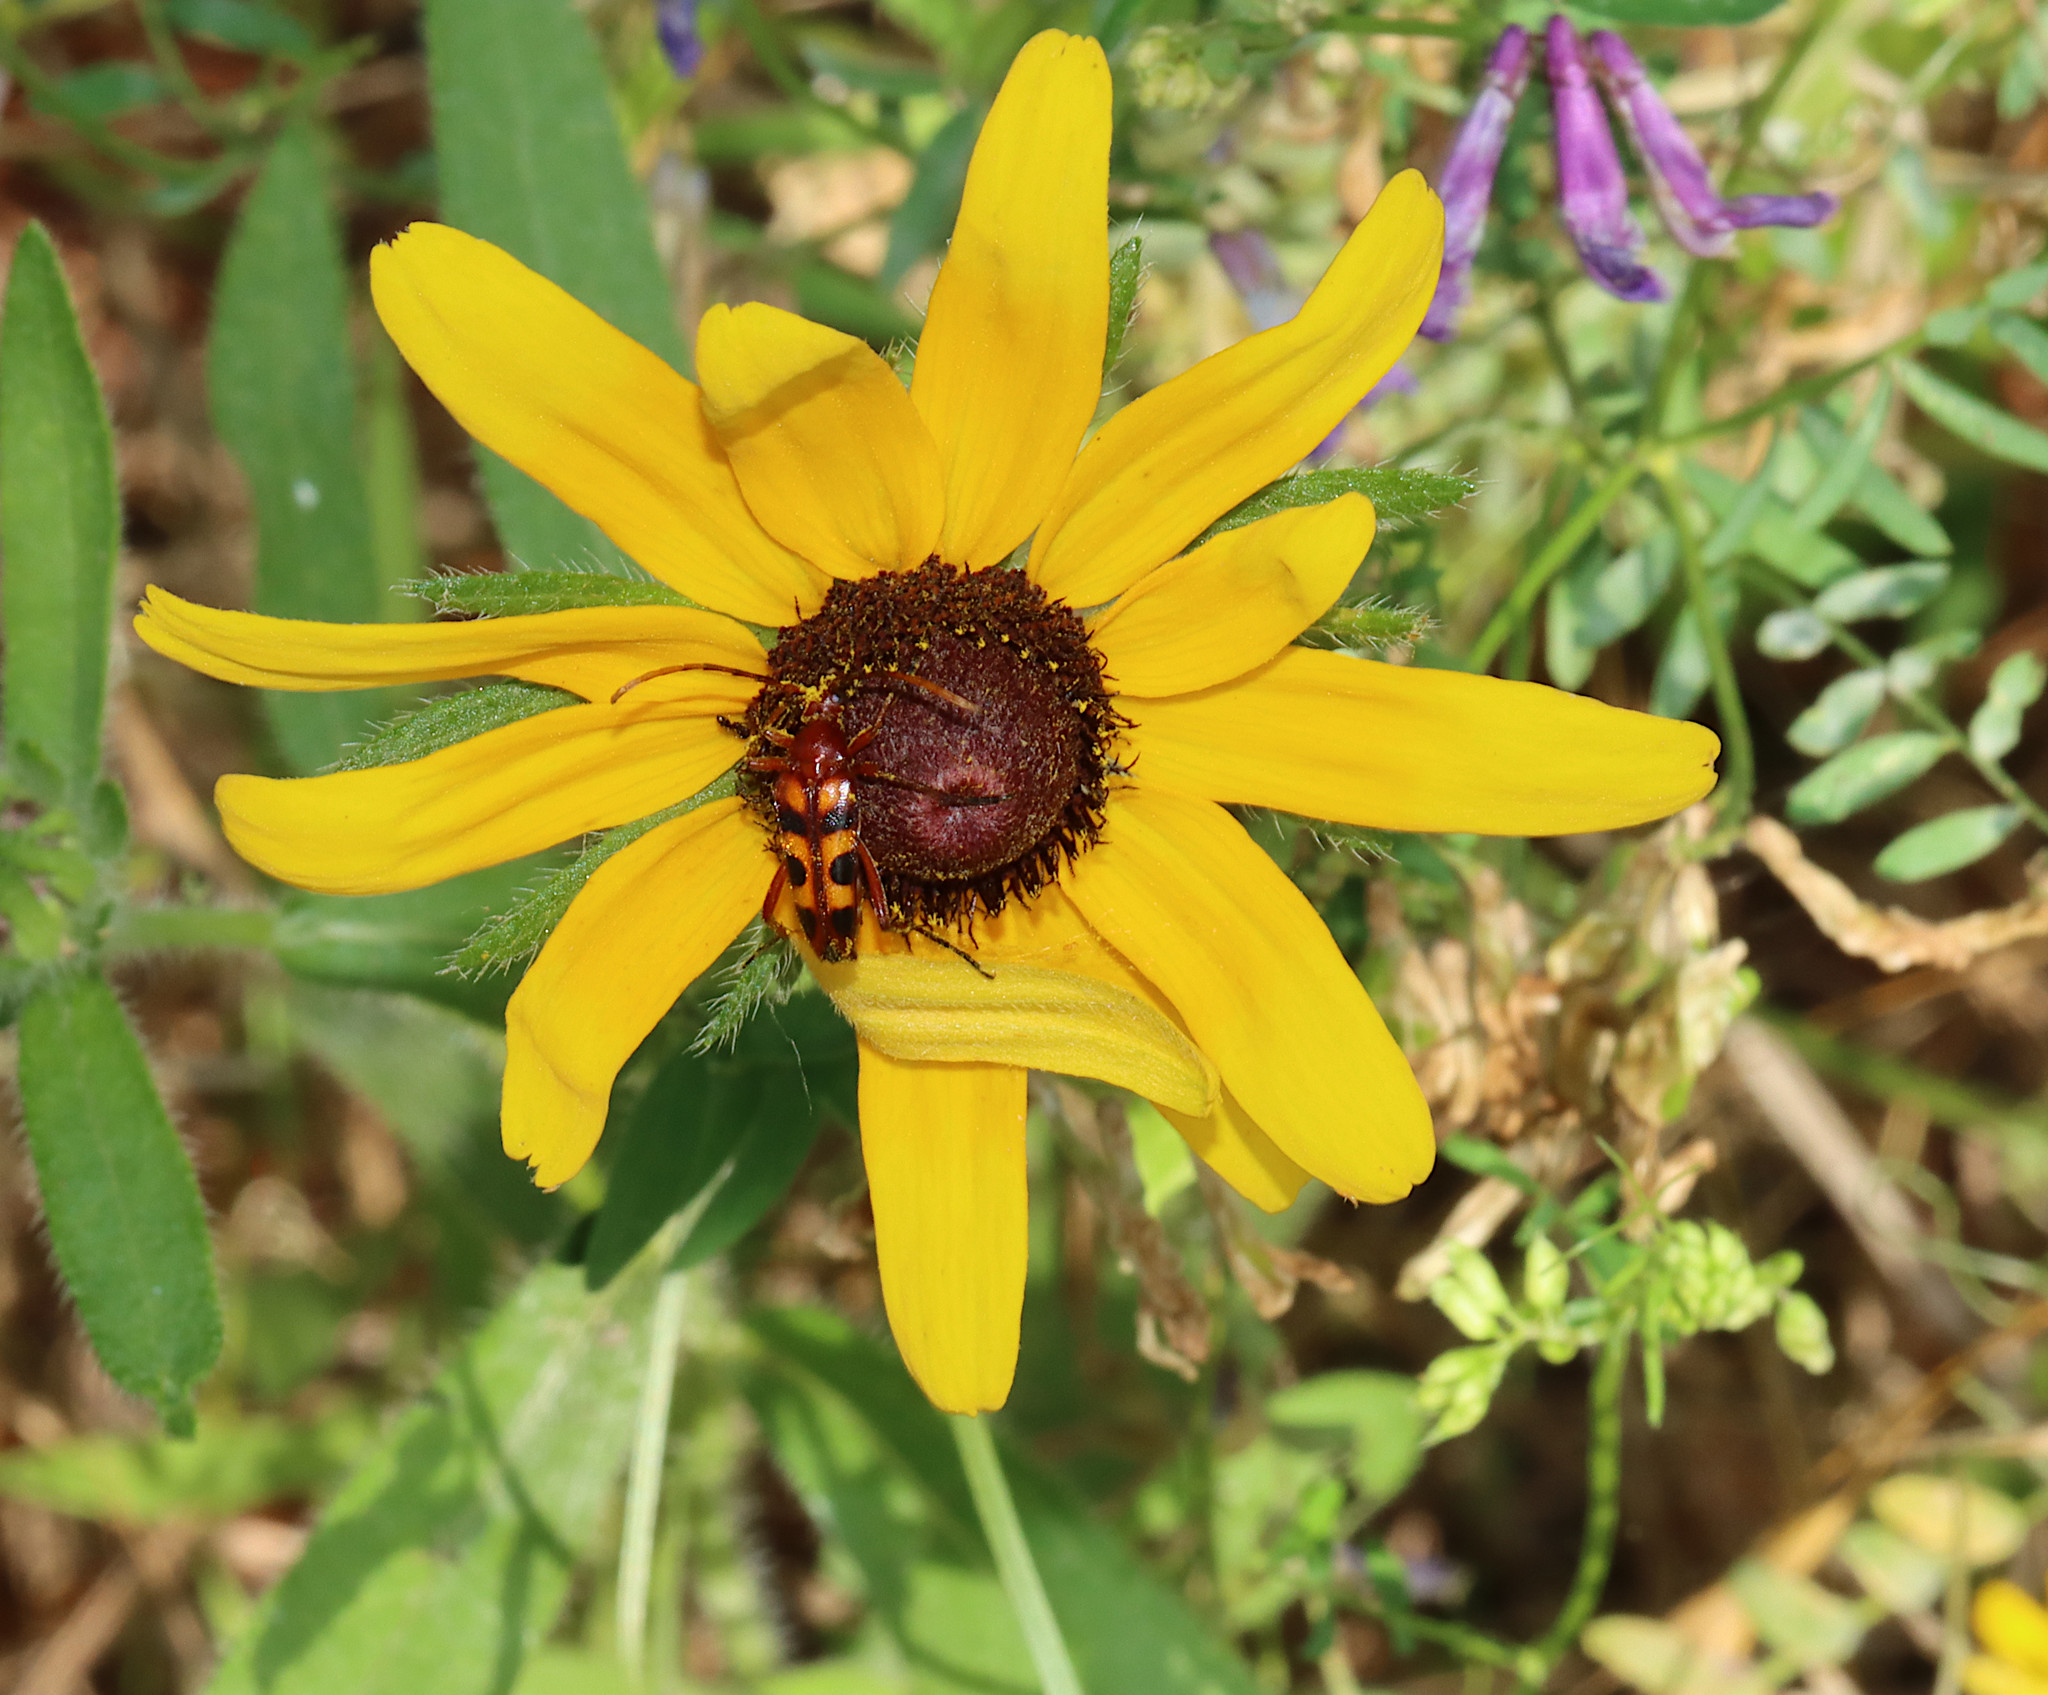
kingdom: Animalia
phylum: Arthropoda
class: Insecta
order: Coleoptera
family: Cerambycidae
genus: Strangalia
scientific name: Strangalia sexnotata
